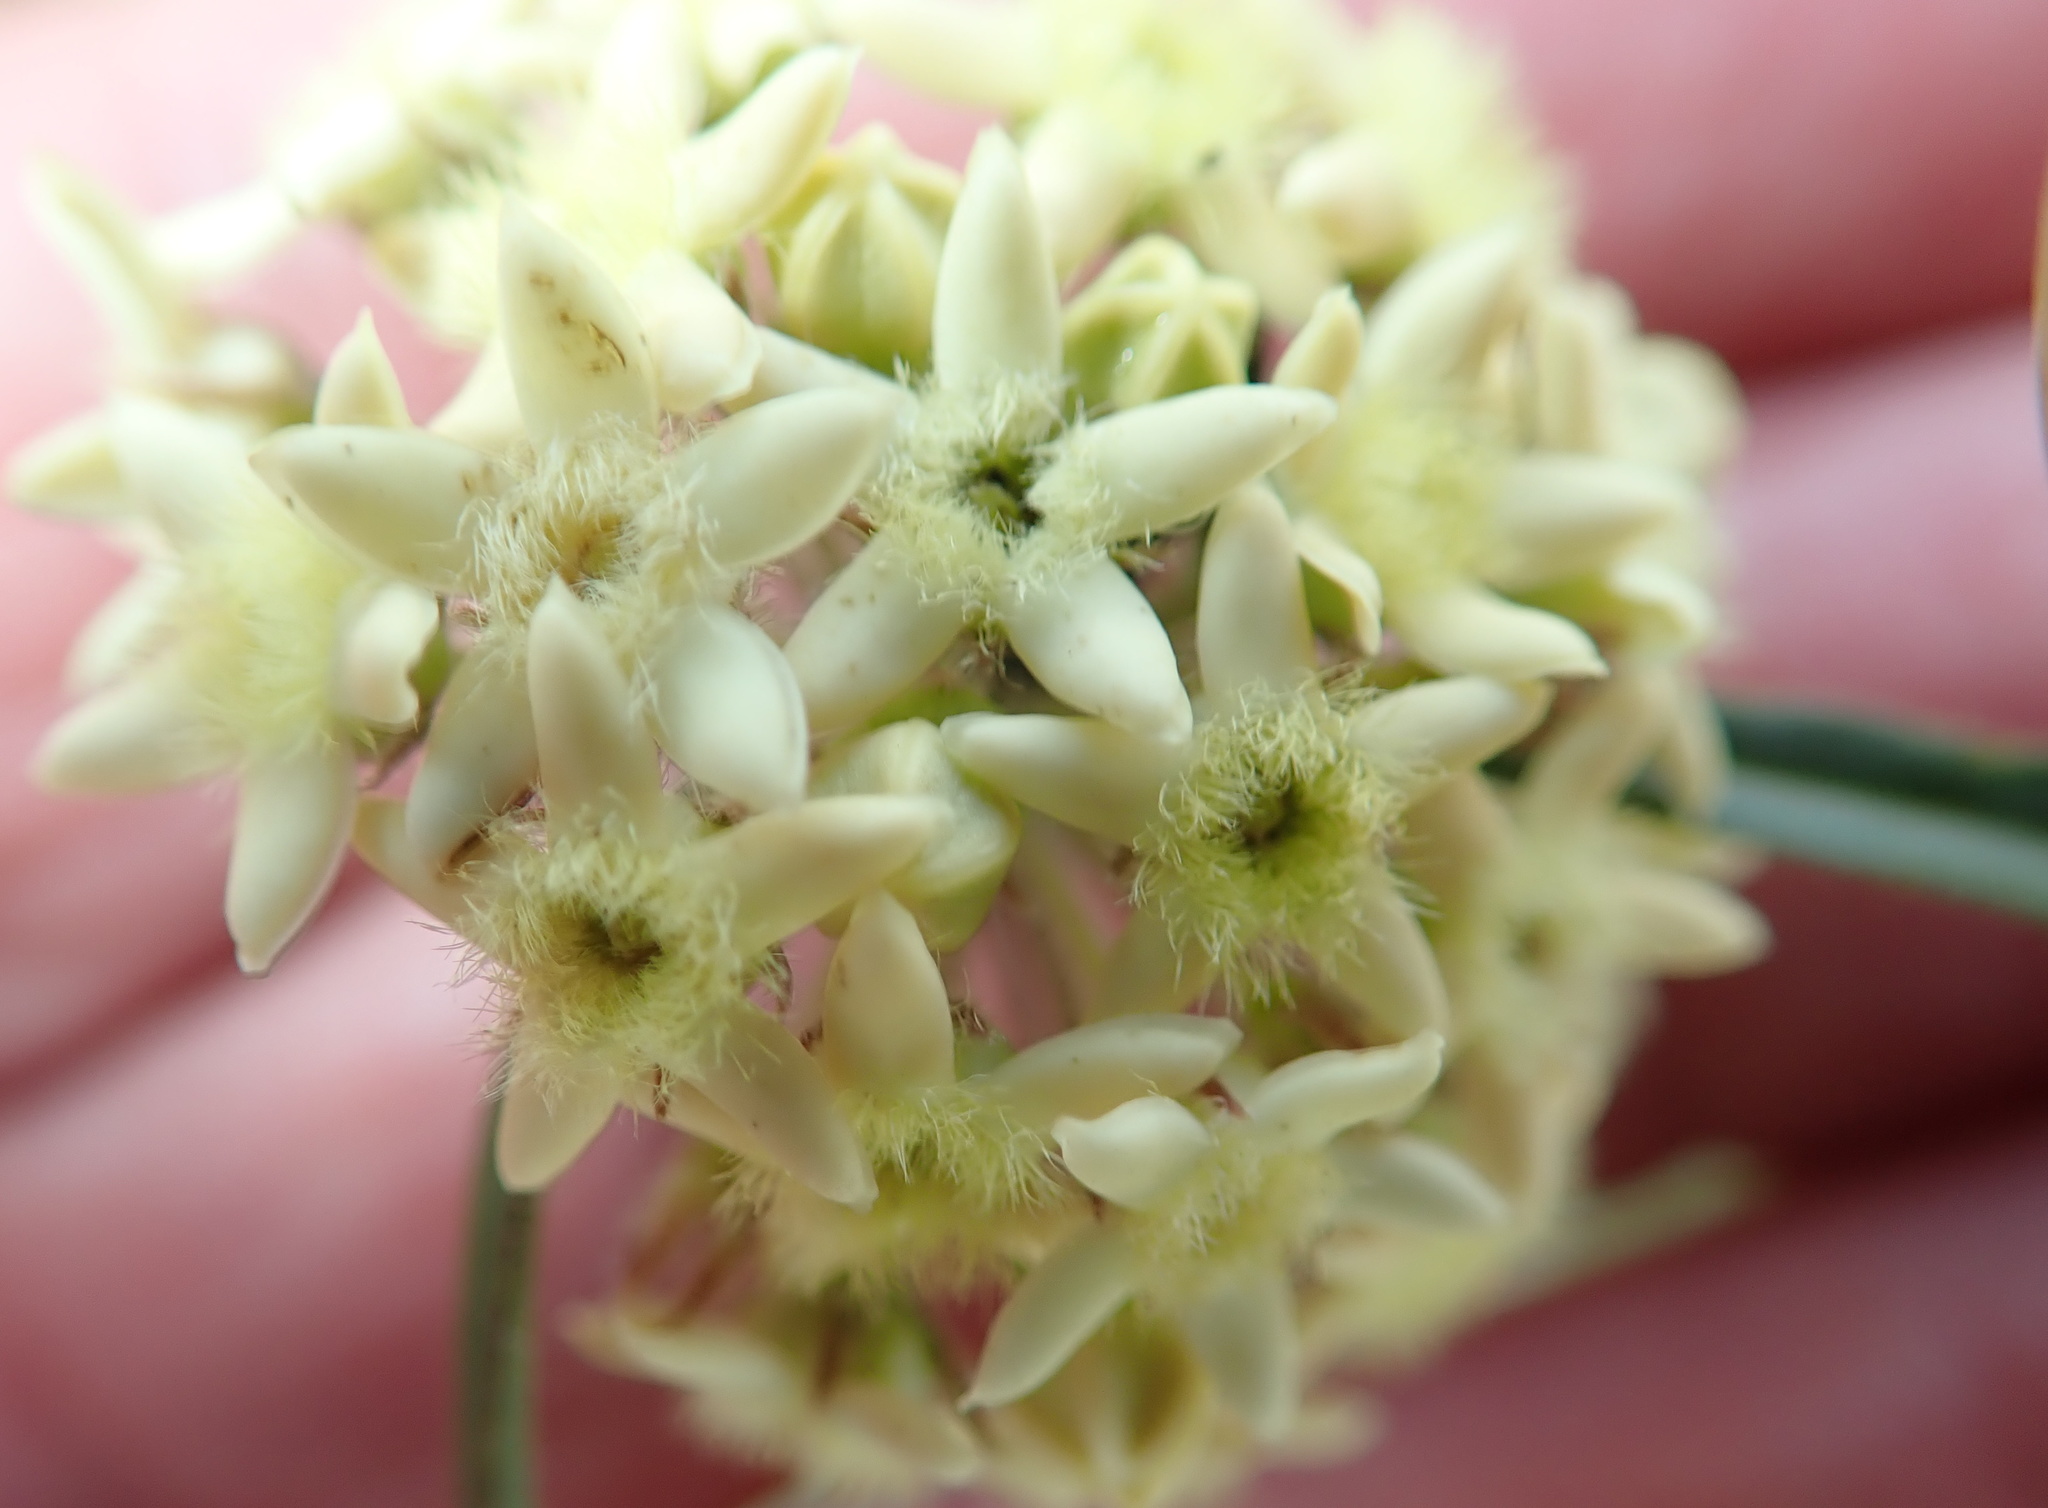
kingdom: Plantae
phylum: Tracheophyta
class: Magnoliopsida
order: Gentianales
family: Apocynaceae
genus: Sisyranthus
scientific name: Sisyranthus trichostomus
